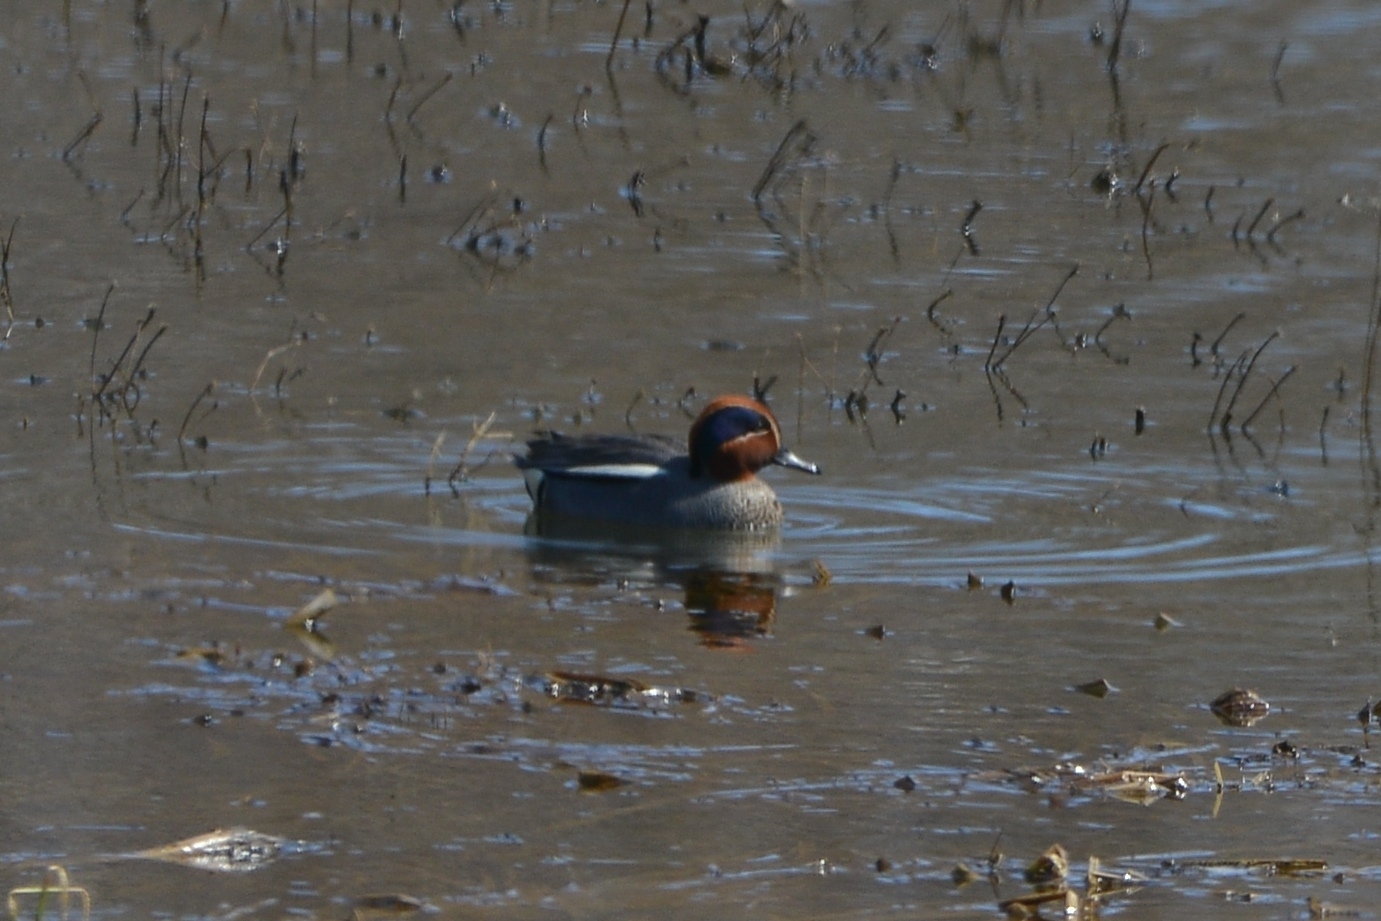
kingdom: Animalia
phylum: Chordata
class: Aves
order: Anseriformes
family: Anatidae
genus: Anas
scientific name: Anas crecca
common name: Eurasian teal
